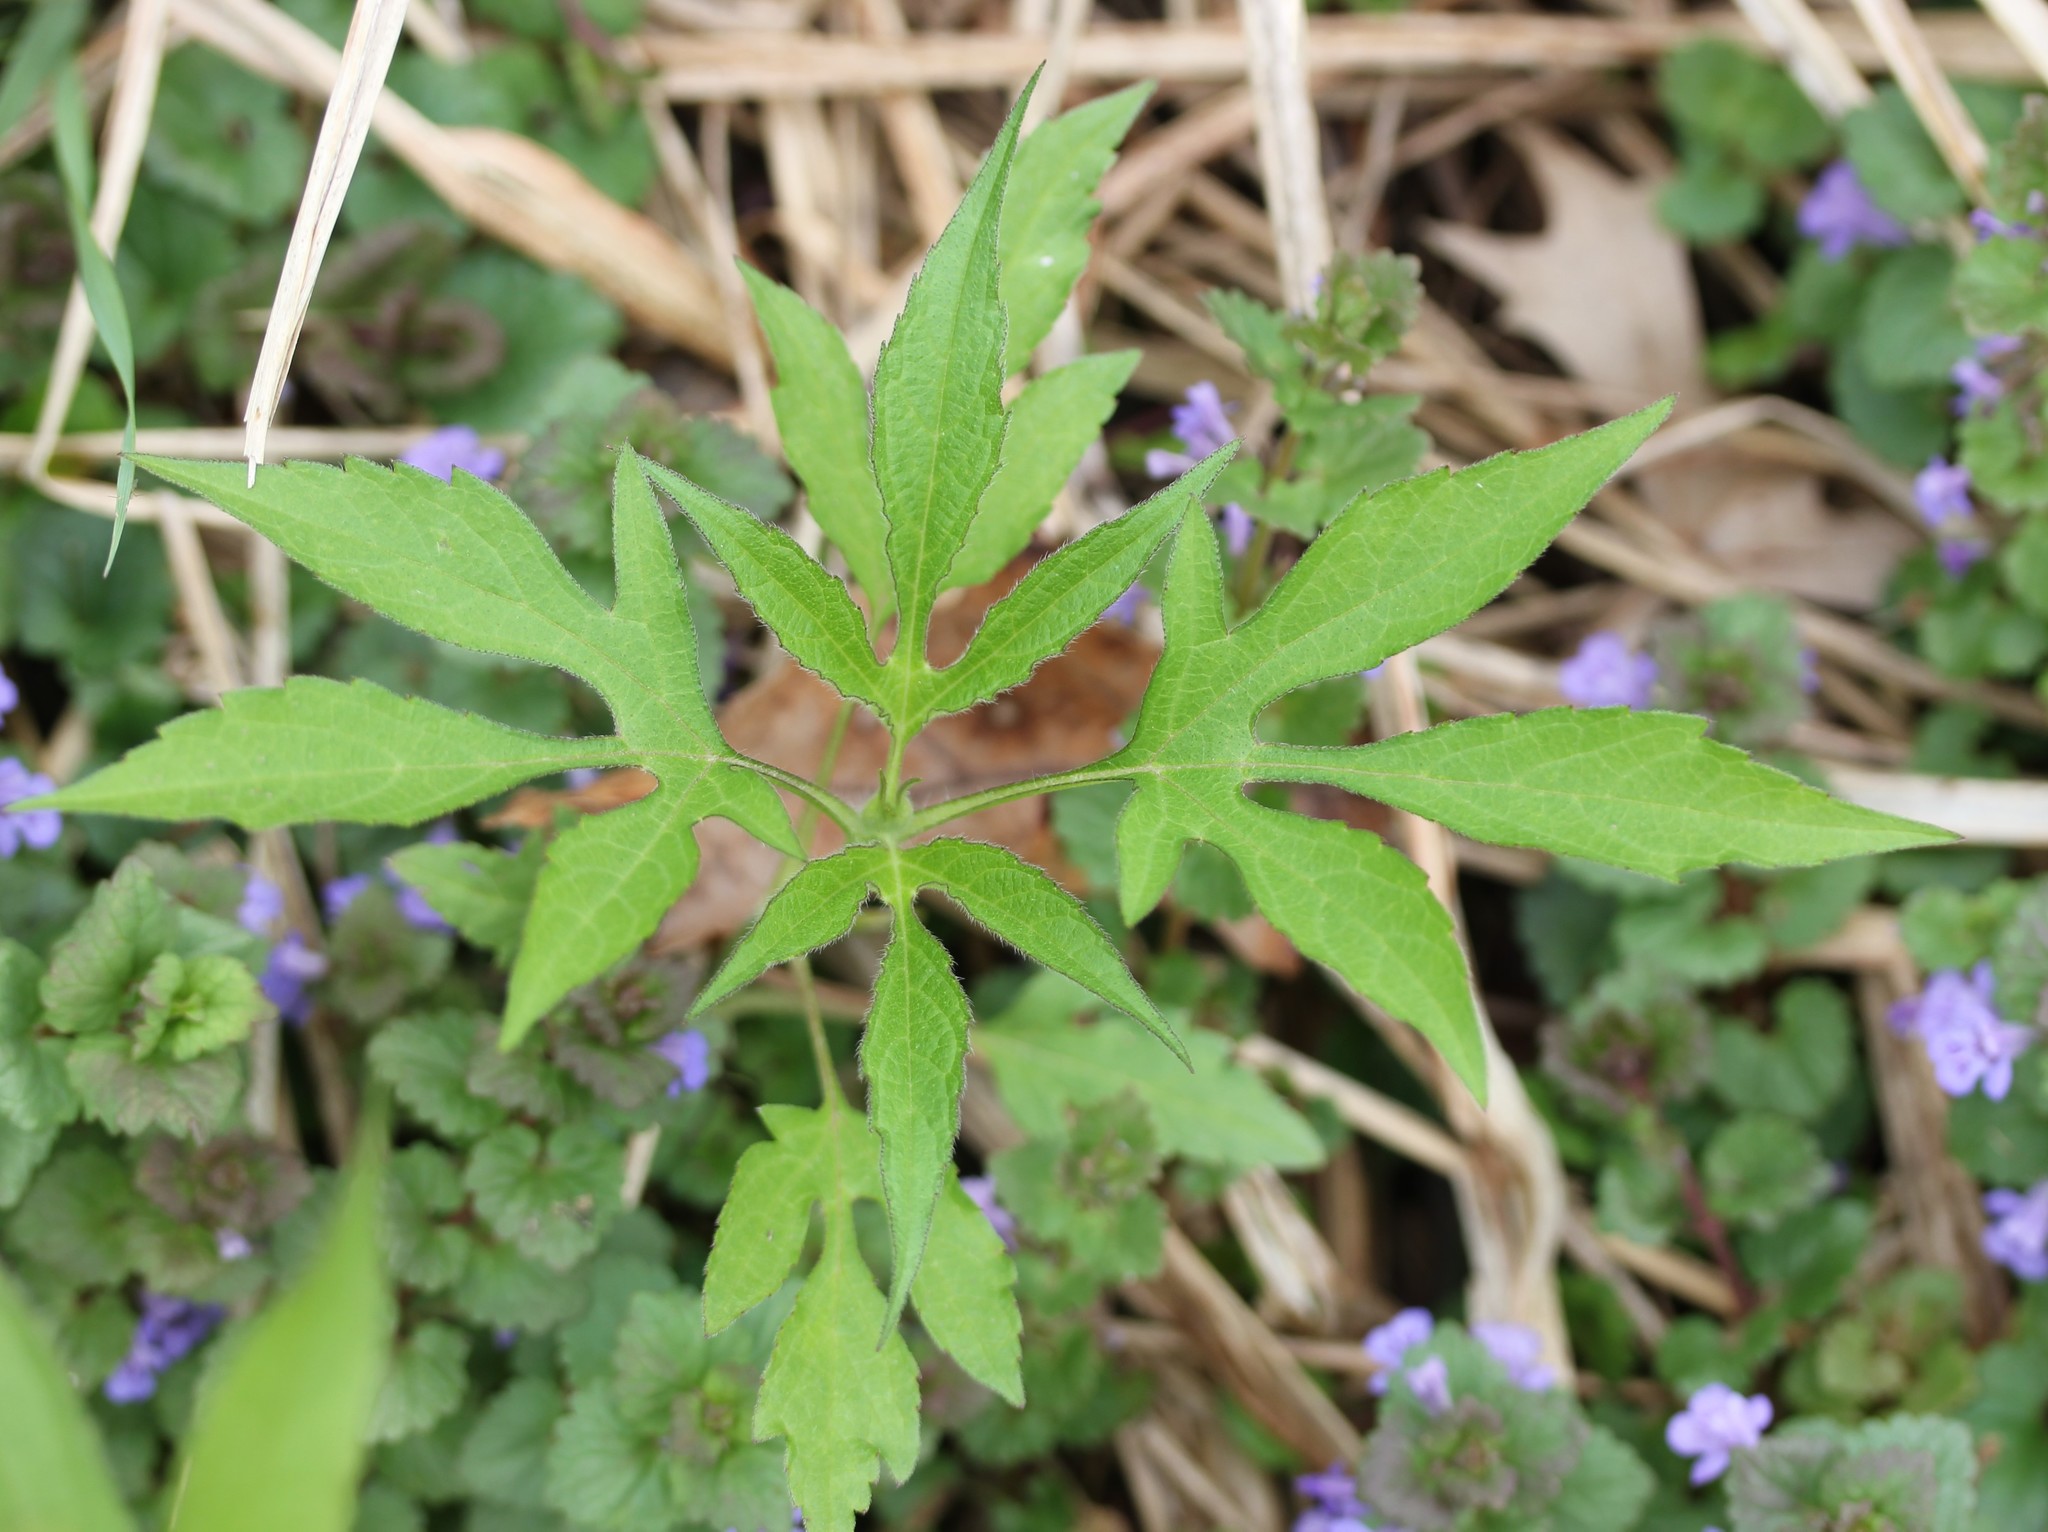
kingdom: Plantae
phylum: Tracheophyta
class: Magnoliopsida
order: Asterales
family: Asteraceae
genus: Ambrosia
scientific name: Ambrosia trifida
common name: Giant ragweed
